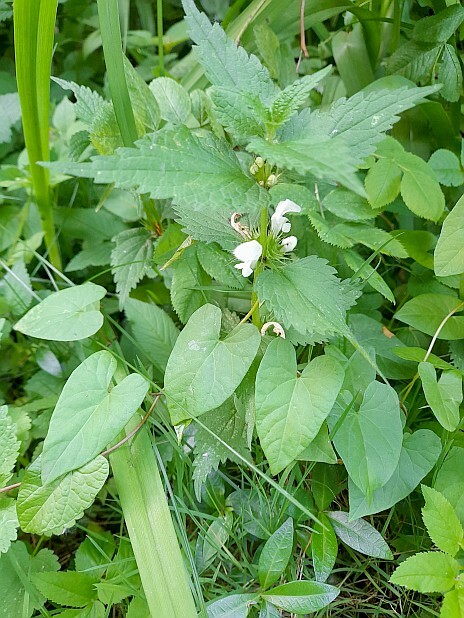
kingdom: Plantae
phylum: Tracheophyta
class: Magnoliopsida
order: Lamiales
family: Lamiaceae
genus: Lamium
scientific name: Lamium album
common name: White dead-nettle
